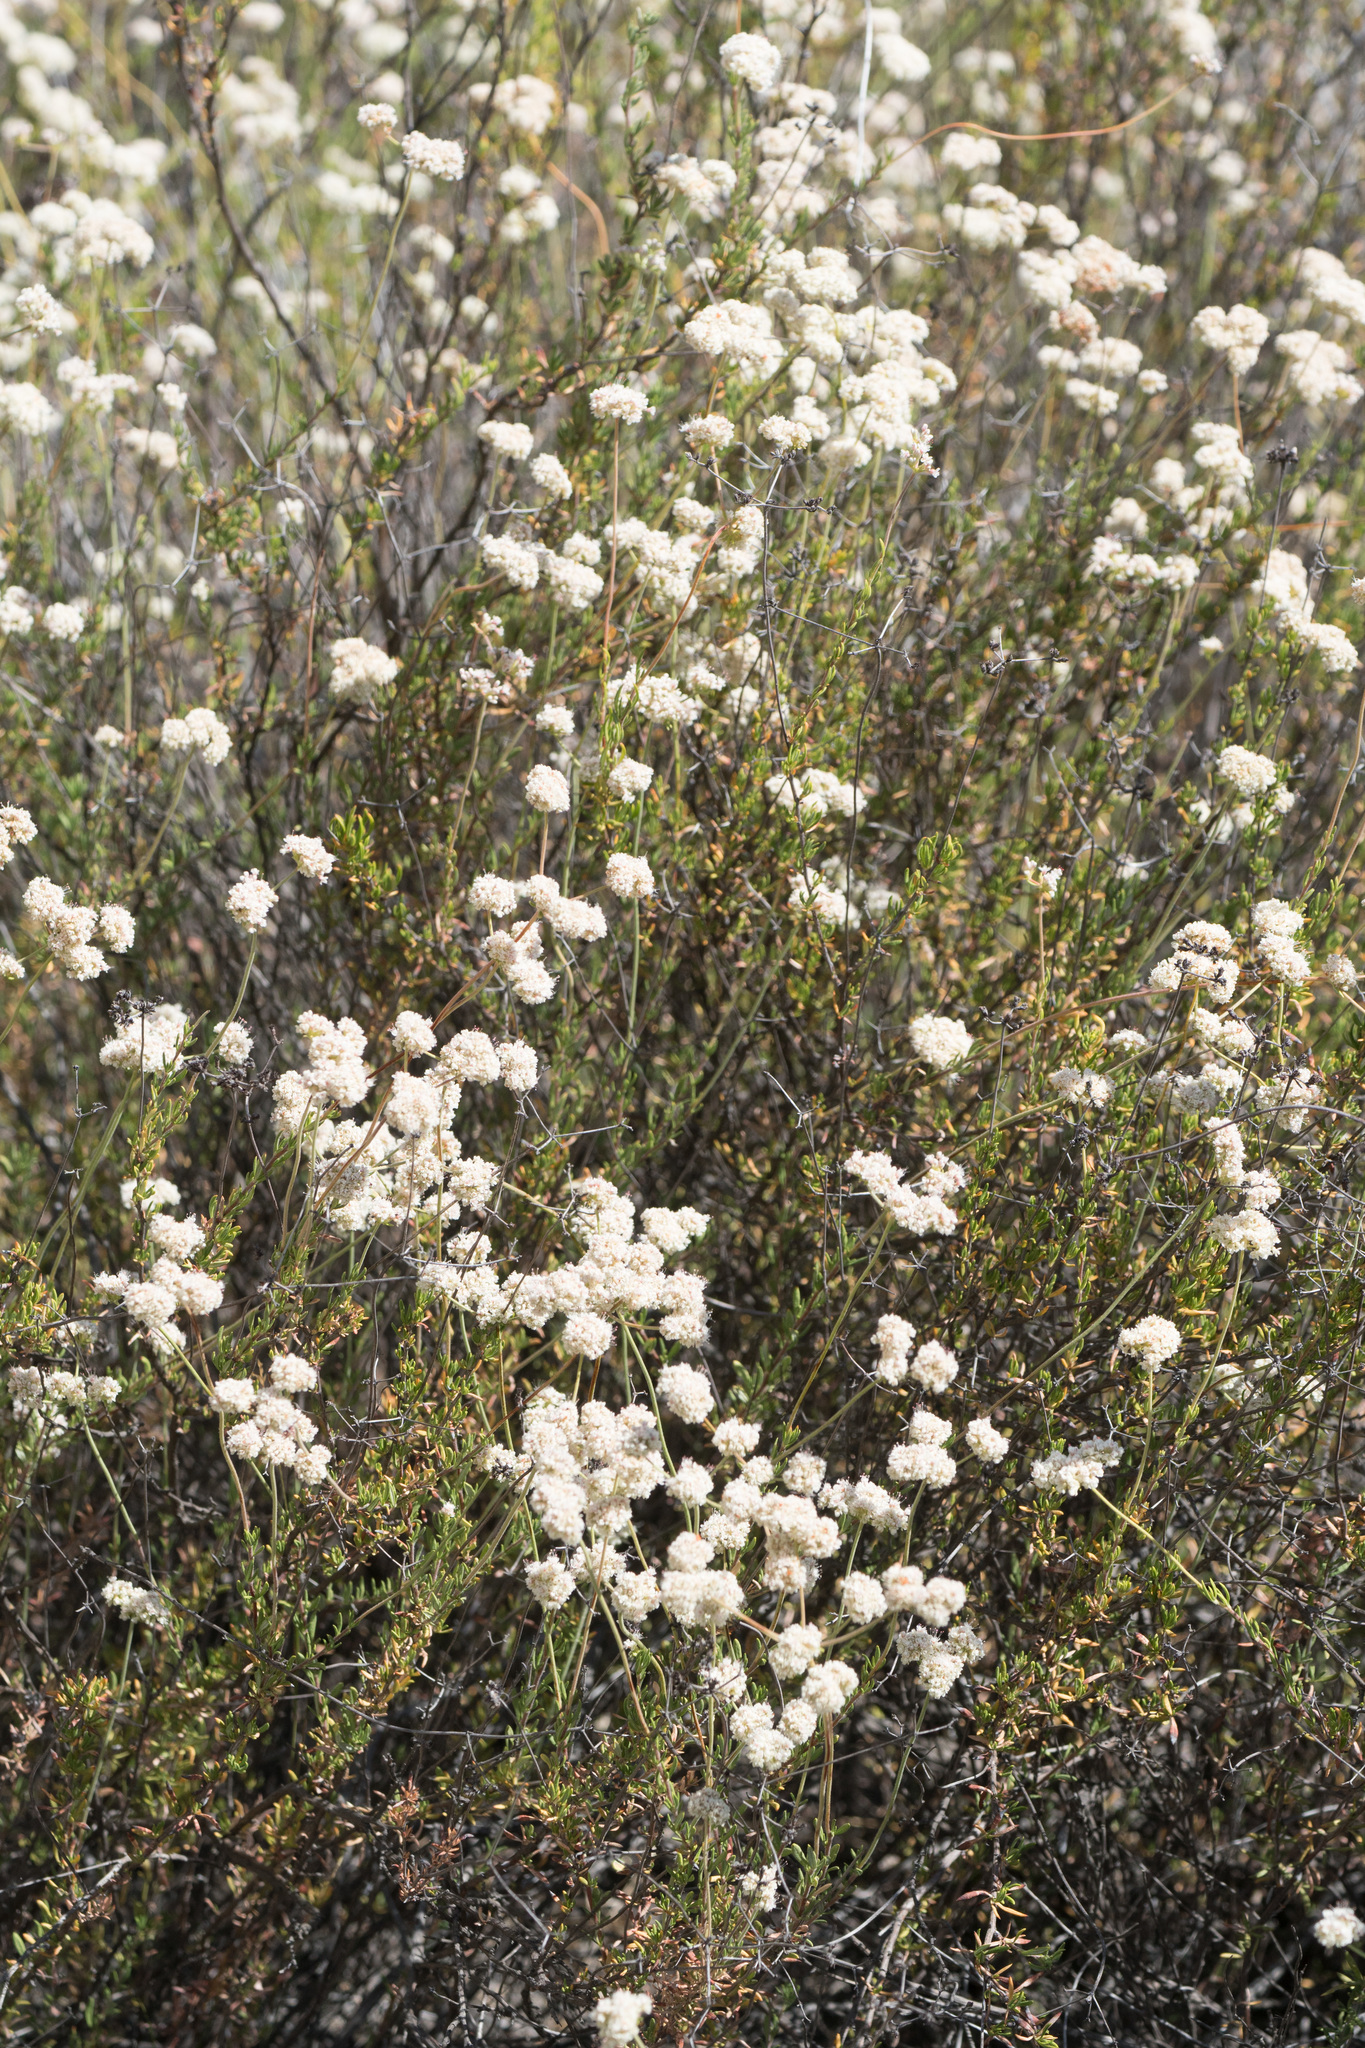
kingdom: Plantae
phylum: Tracheophyta
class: Magnoliopsida
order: Caryophyllales
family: Polygonaceae
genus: Eriogonum
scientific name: Eriogonum fasciculatum
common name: California wild buckwheat
